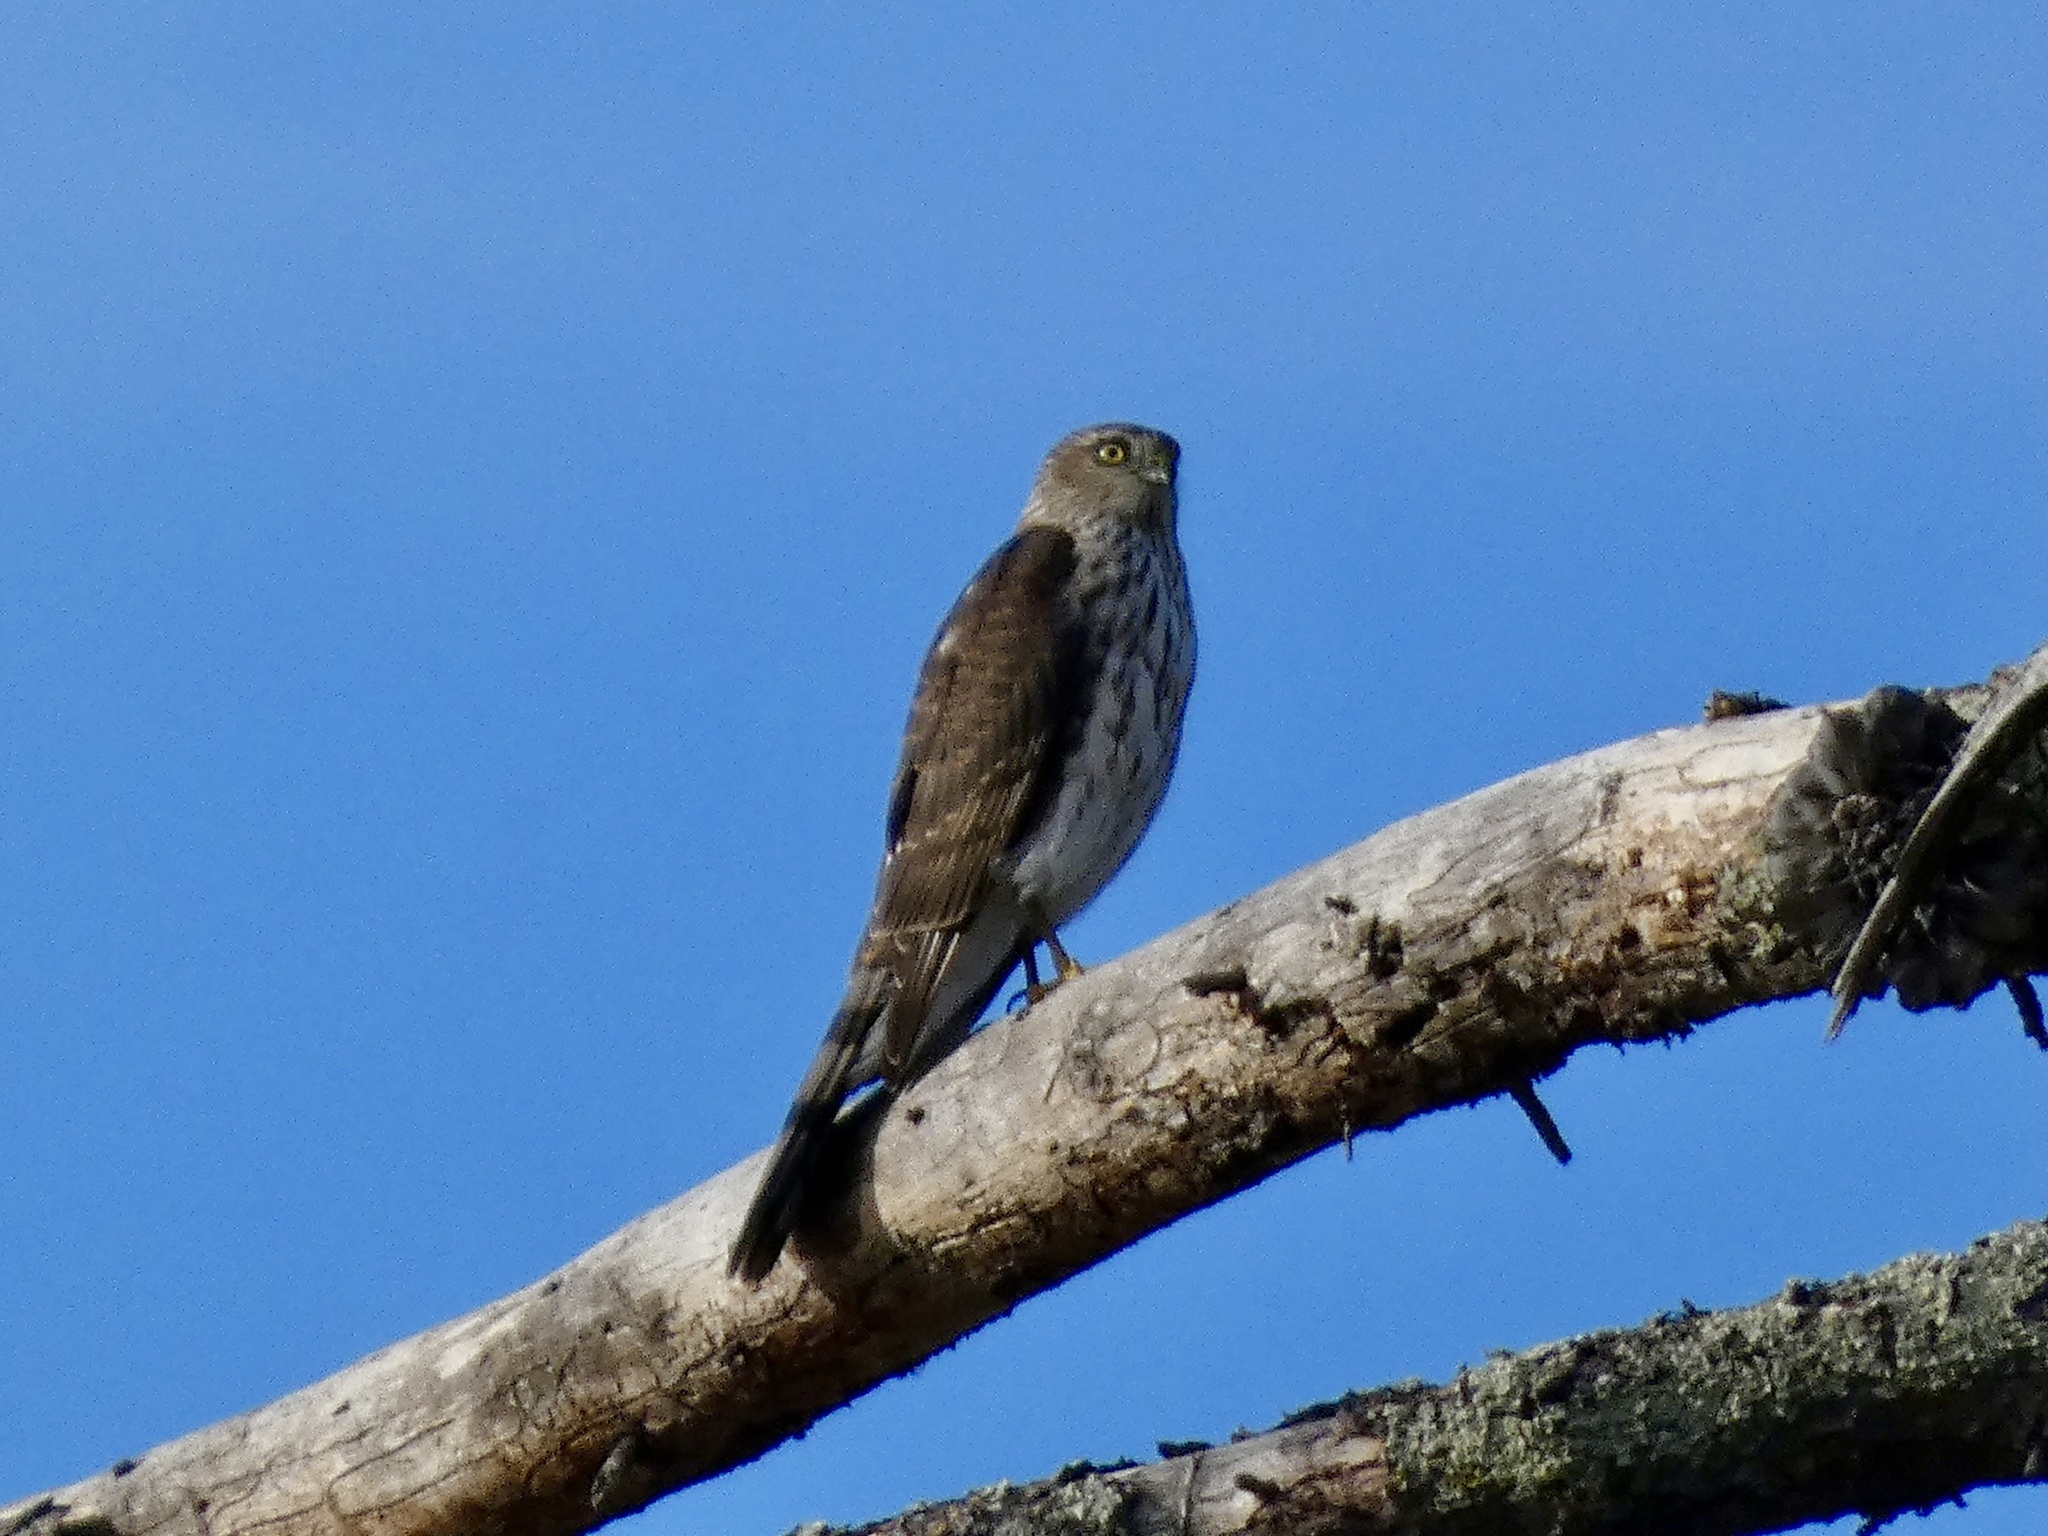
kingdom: Animalia
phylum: Chordata
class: Aves
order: Accipitriformes
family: Accipitridae
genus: Accipiter
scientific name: Accipiter striatus
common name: Sharp-shinned hawk
